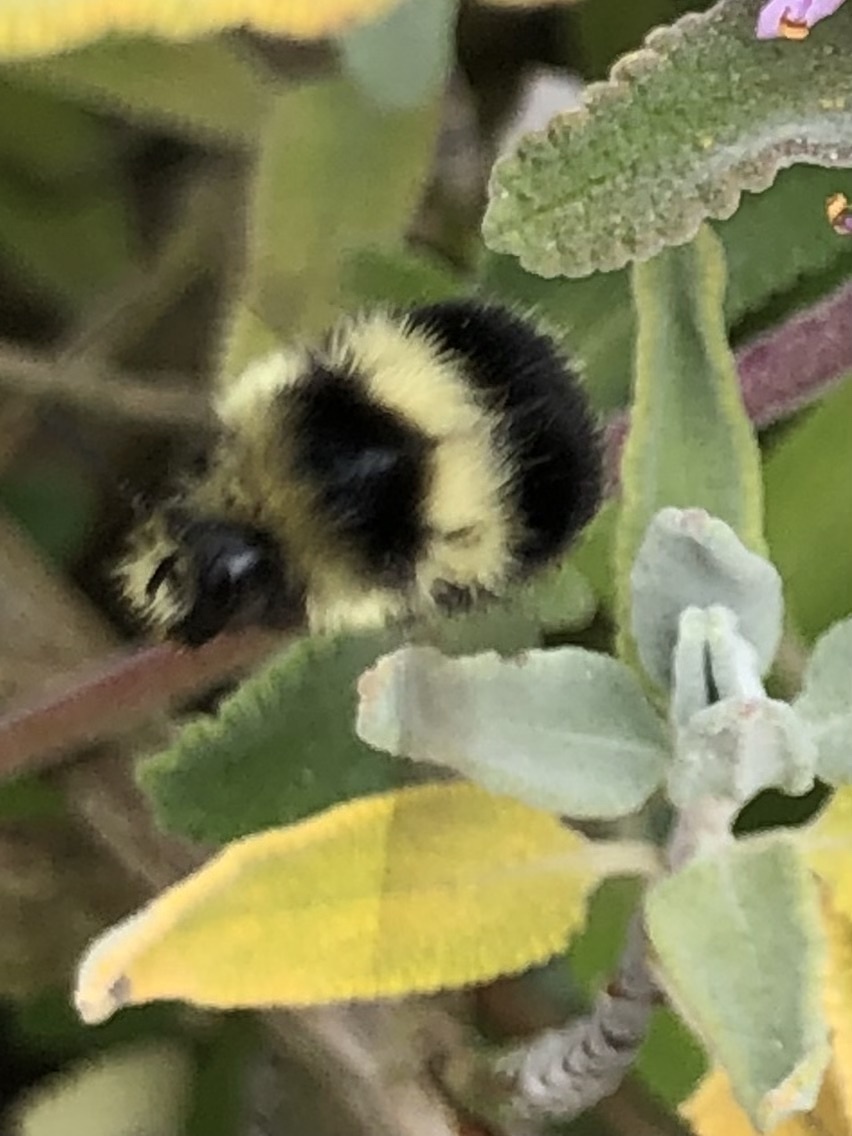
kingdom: Animalia
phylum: Arthropoda
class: Insecta
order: Hymenoptera
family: Apidae
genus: Bombus
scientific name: Bombus melanopygus
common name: Black tail bumble bee
